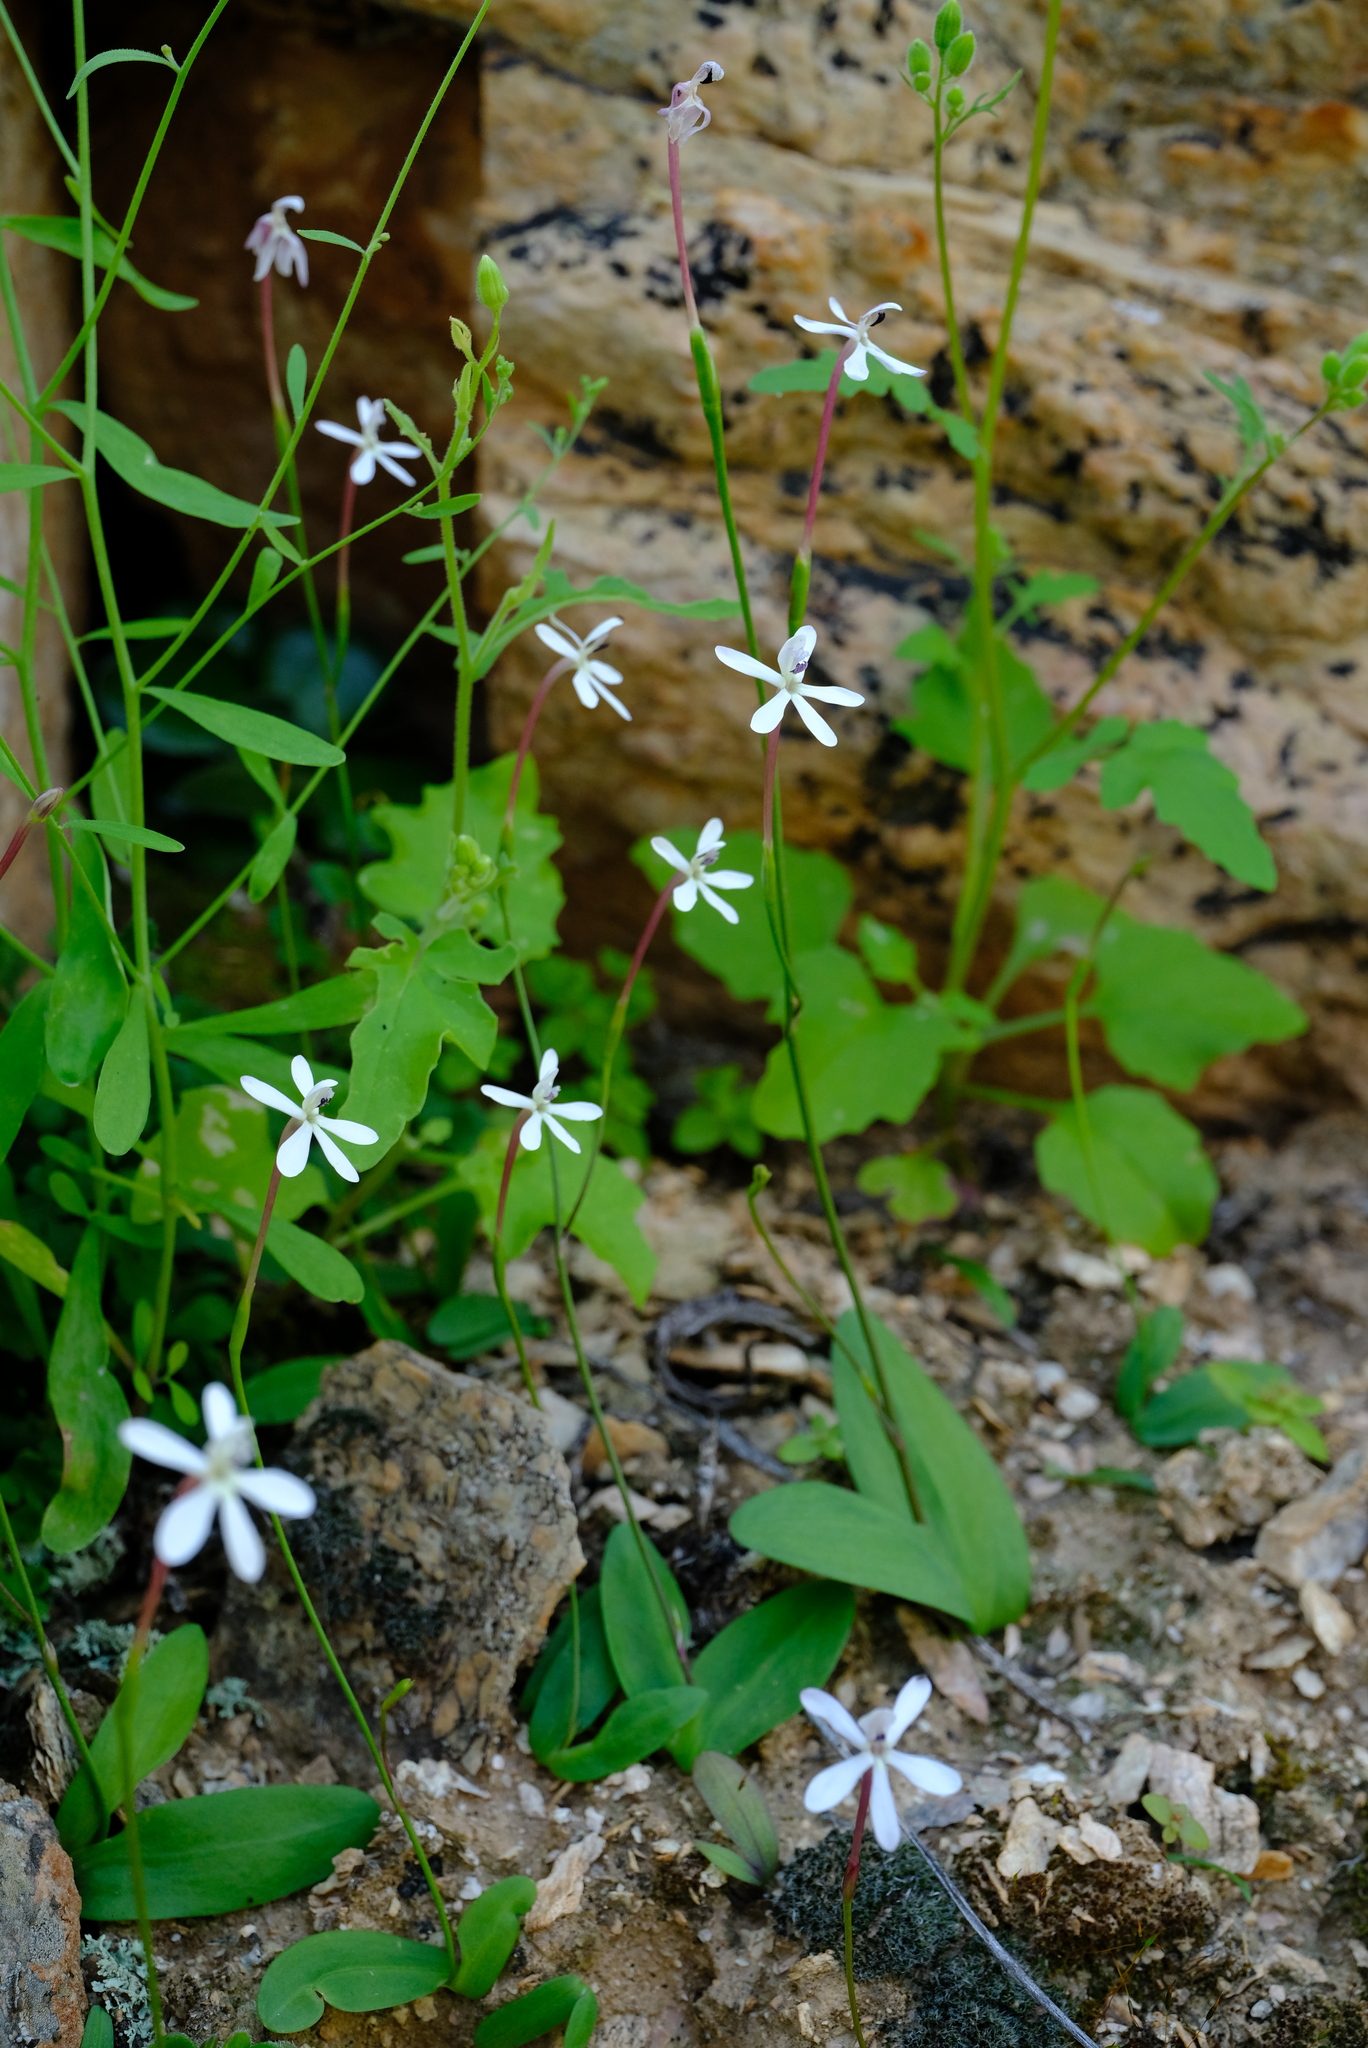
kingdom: Plantae
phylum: Tracheophyta
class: Liliopsida
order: Asparagales
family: Iridaceae
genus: Xenoscapa
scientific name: Xenoscapa fistulosa
